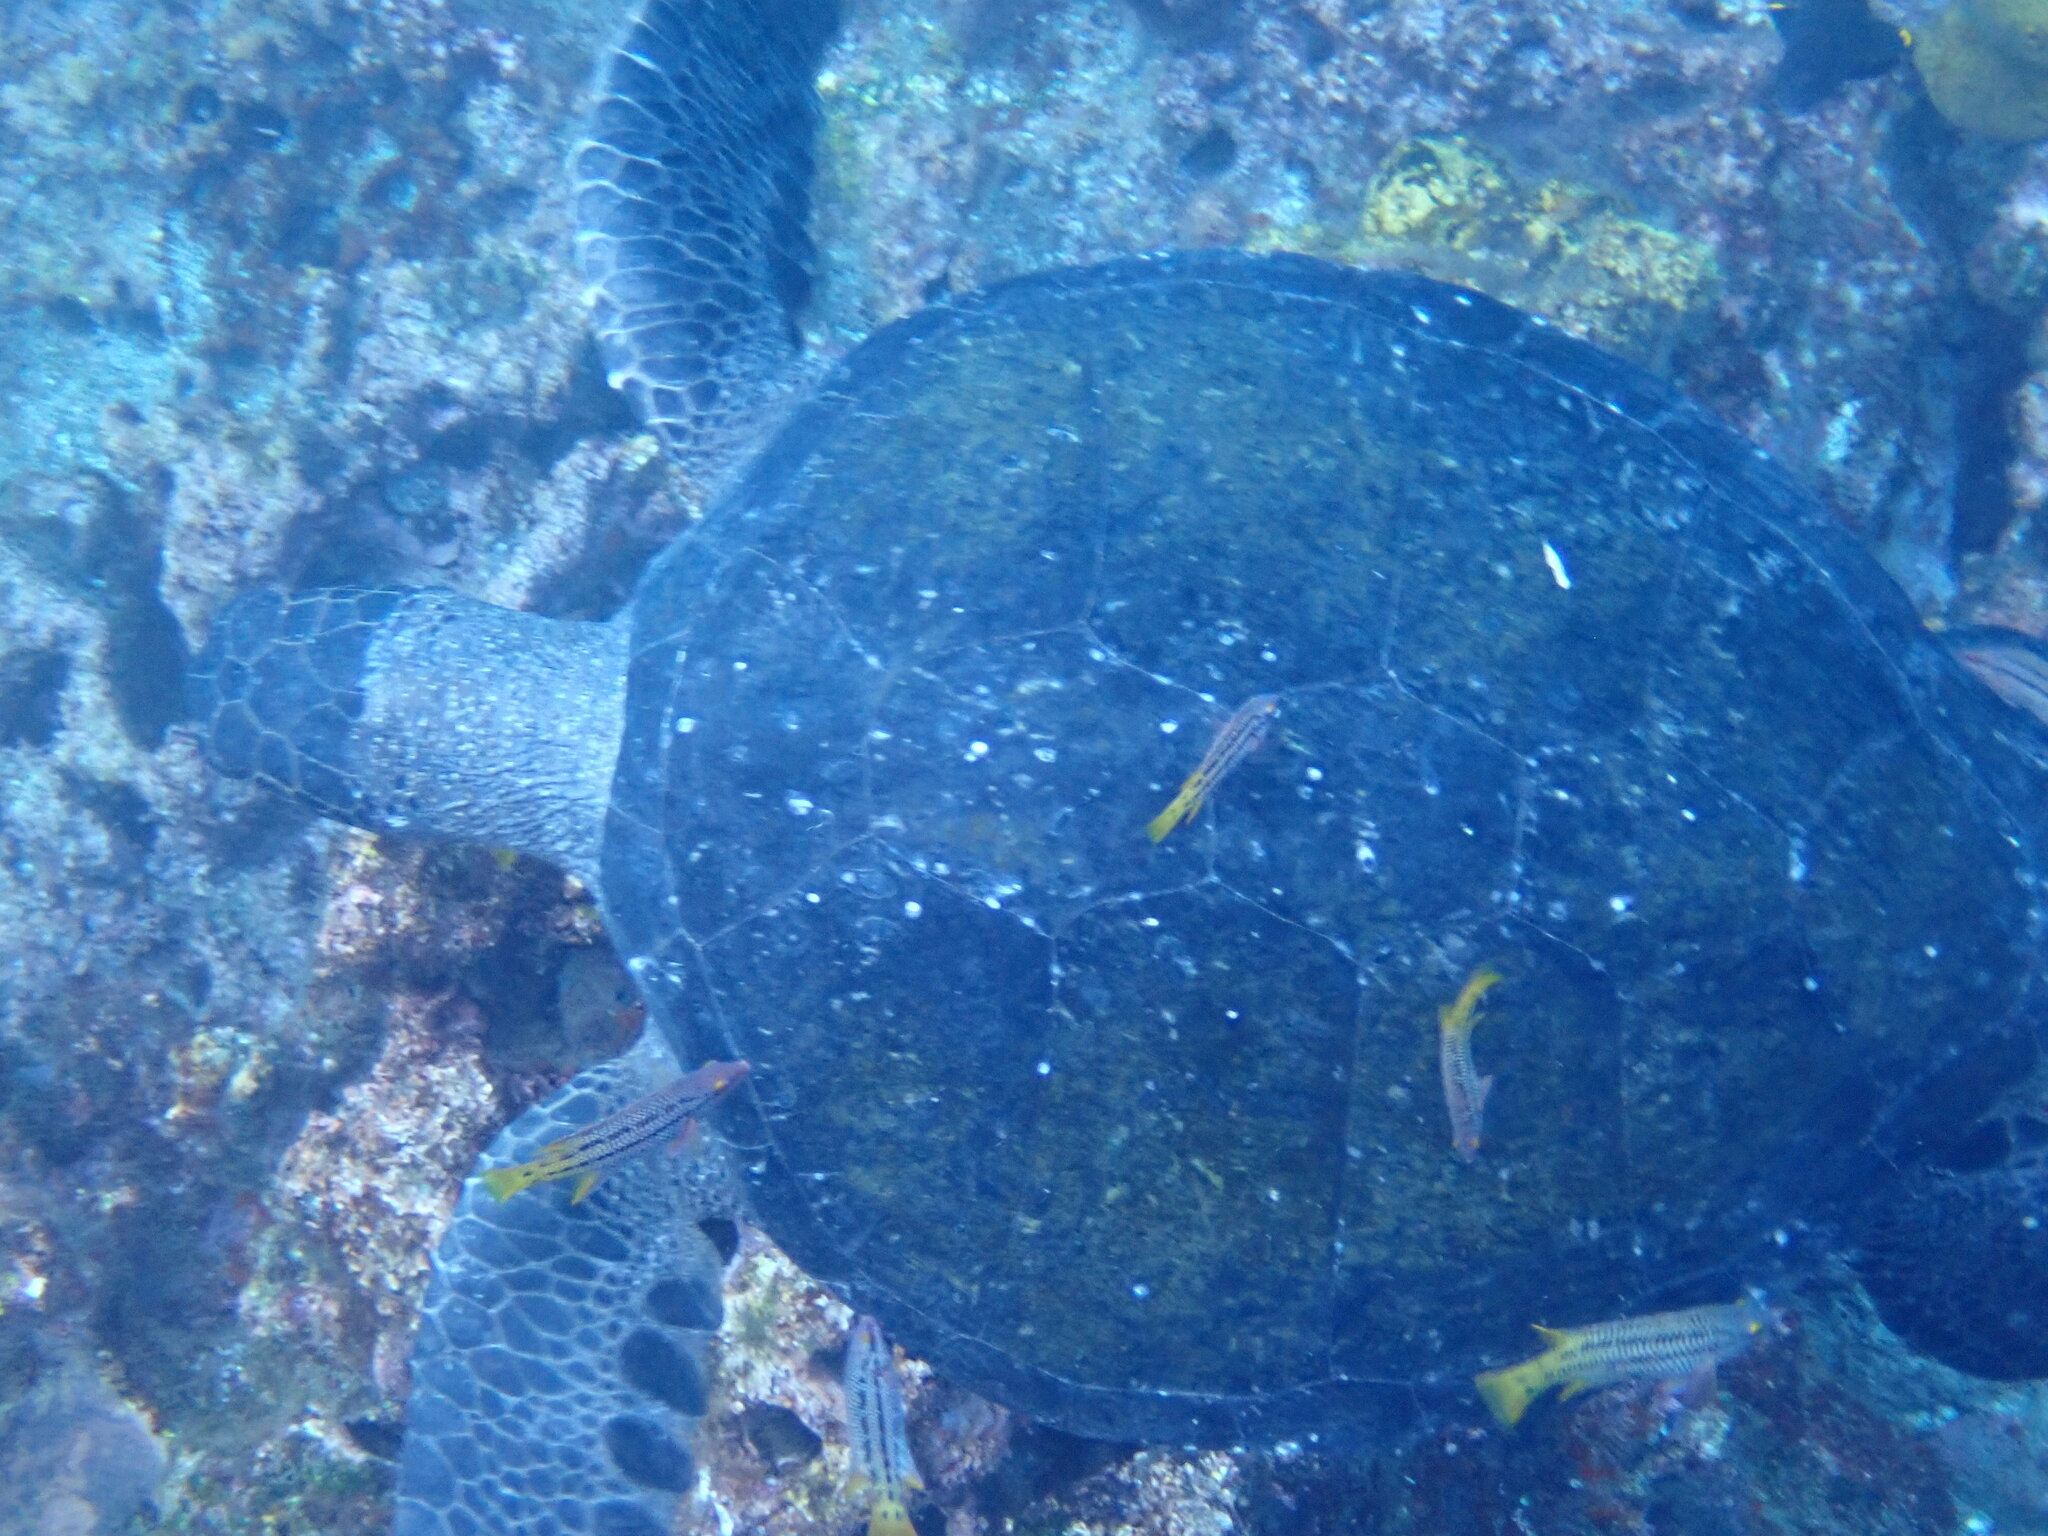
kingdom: Animalia
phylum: Chordata
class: Testudines
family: Cheloniidae
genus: Chelonia
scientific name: Chelonia mydas
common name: Green turtle
